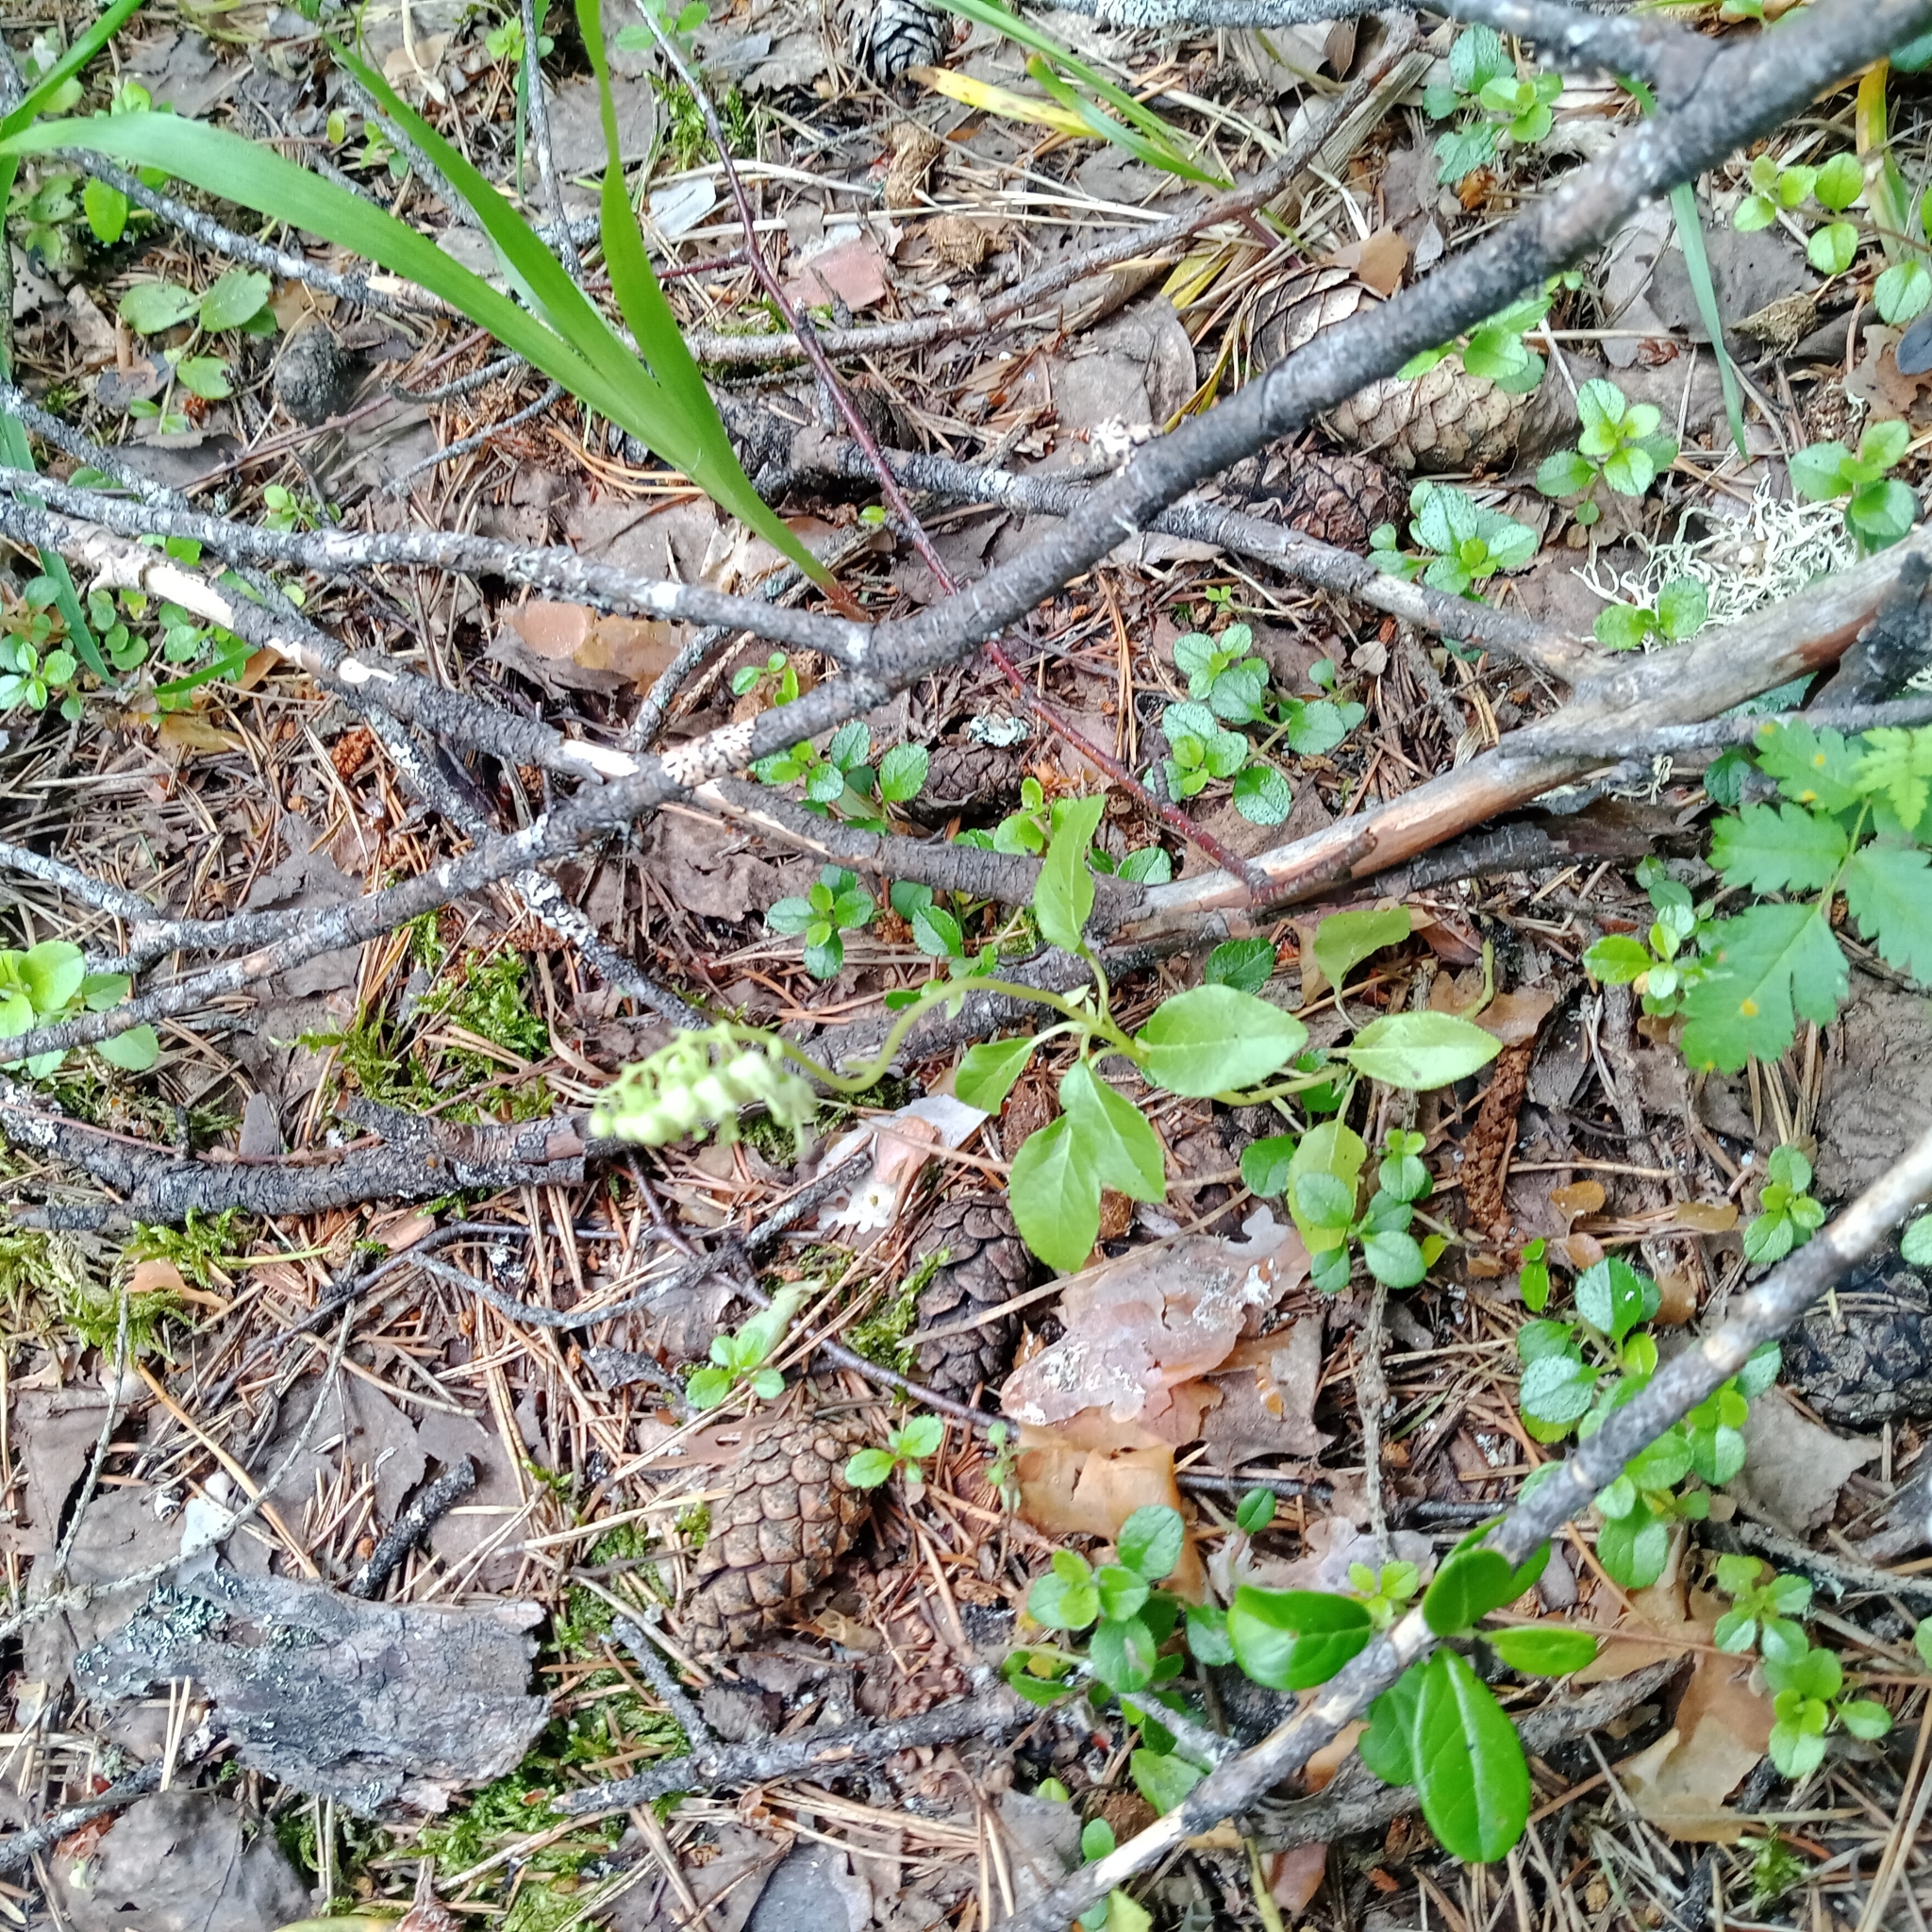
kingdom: Plantae
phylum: Tracheophyta
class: Magnoliopsida
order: Ericales
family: Ericaceae
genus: Orthilia
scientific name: Orthilia secunda
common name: One-sided orthilia
